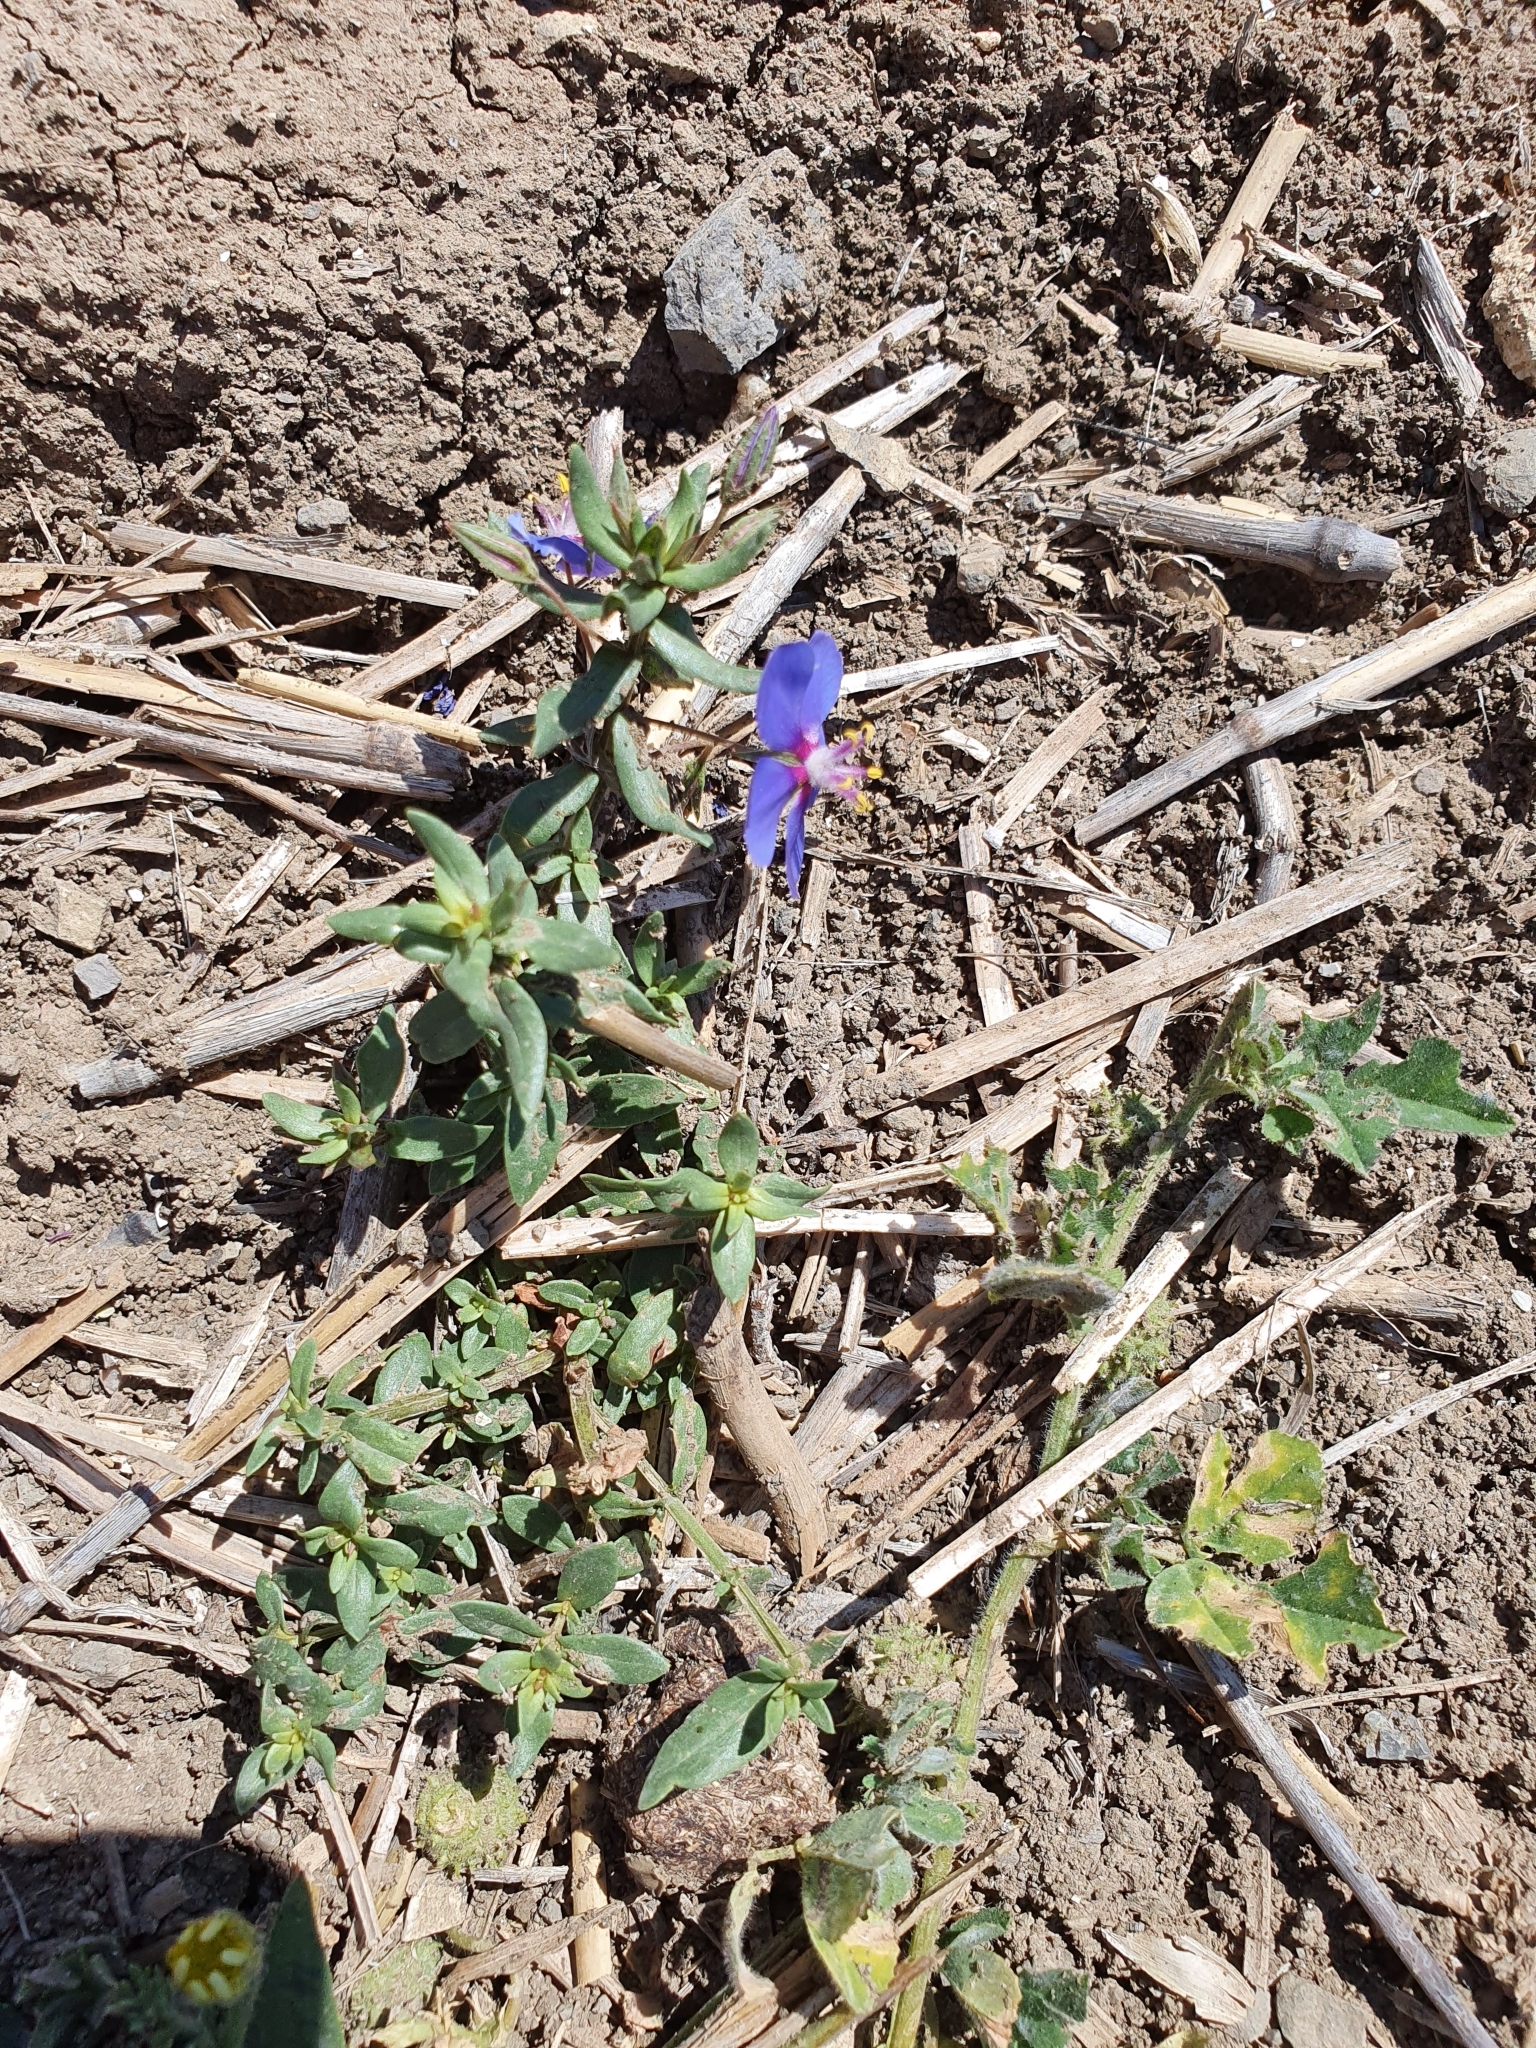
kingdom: Plantae
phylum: Tracheophyta
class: Magnoliopsida
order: Ericales
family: Primulaceae
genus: Lysimachia
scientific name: Lysimachia monelli
